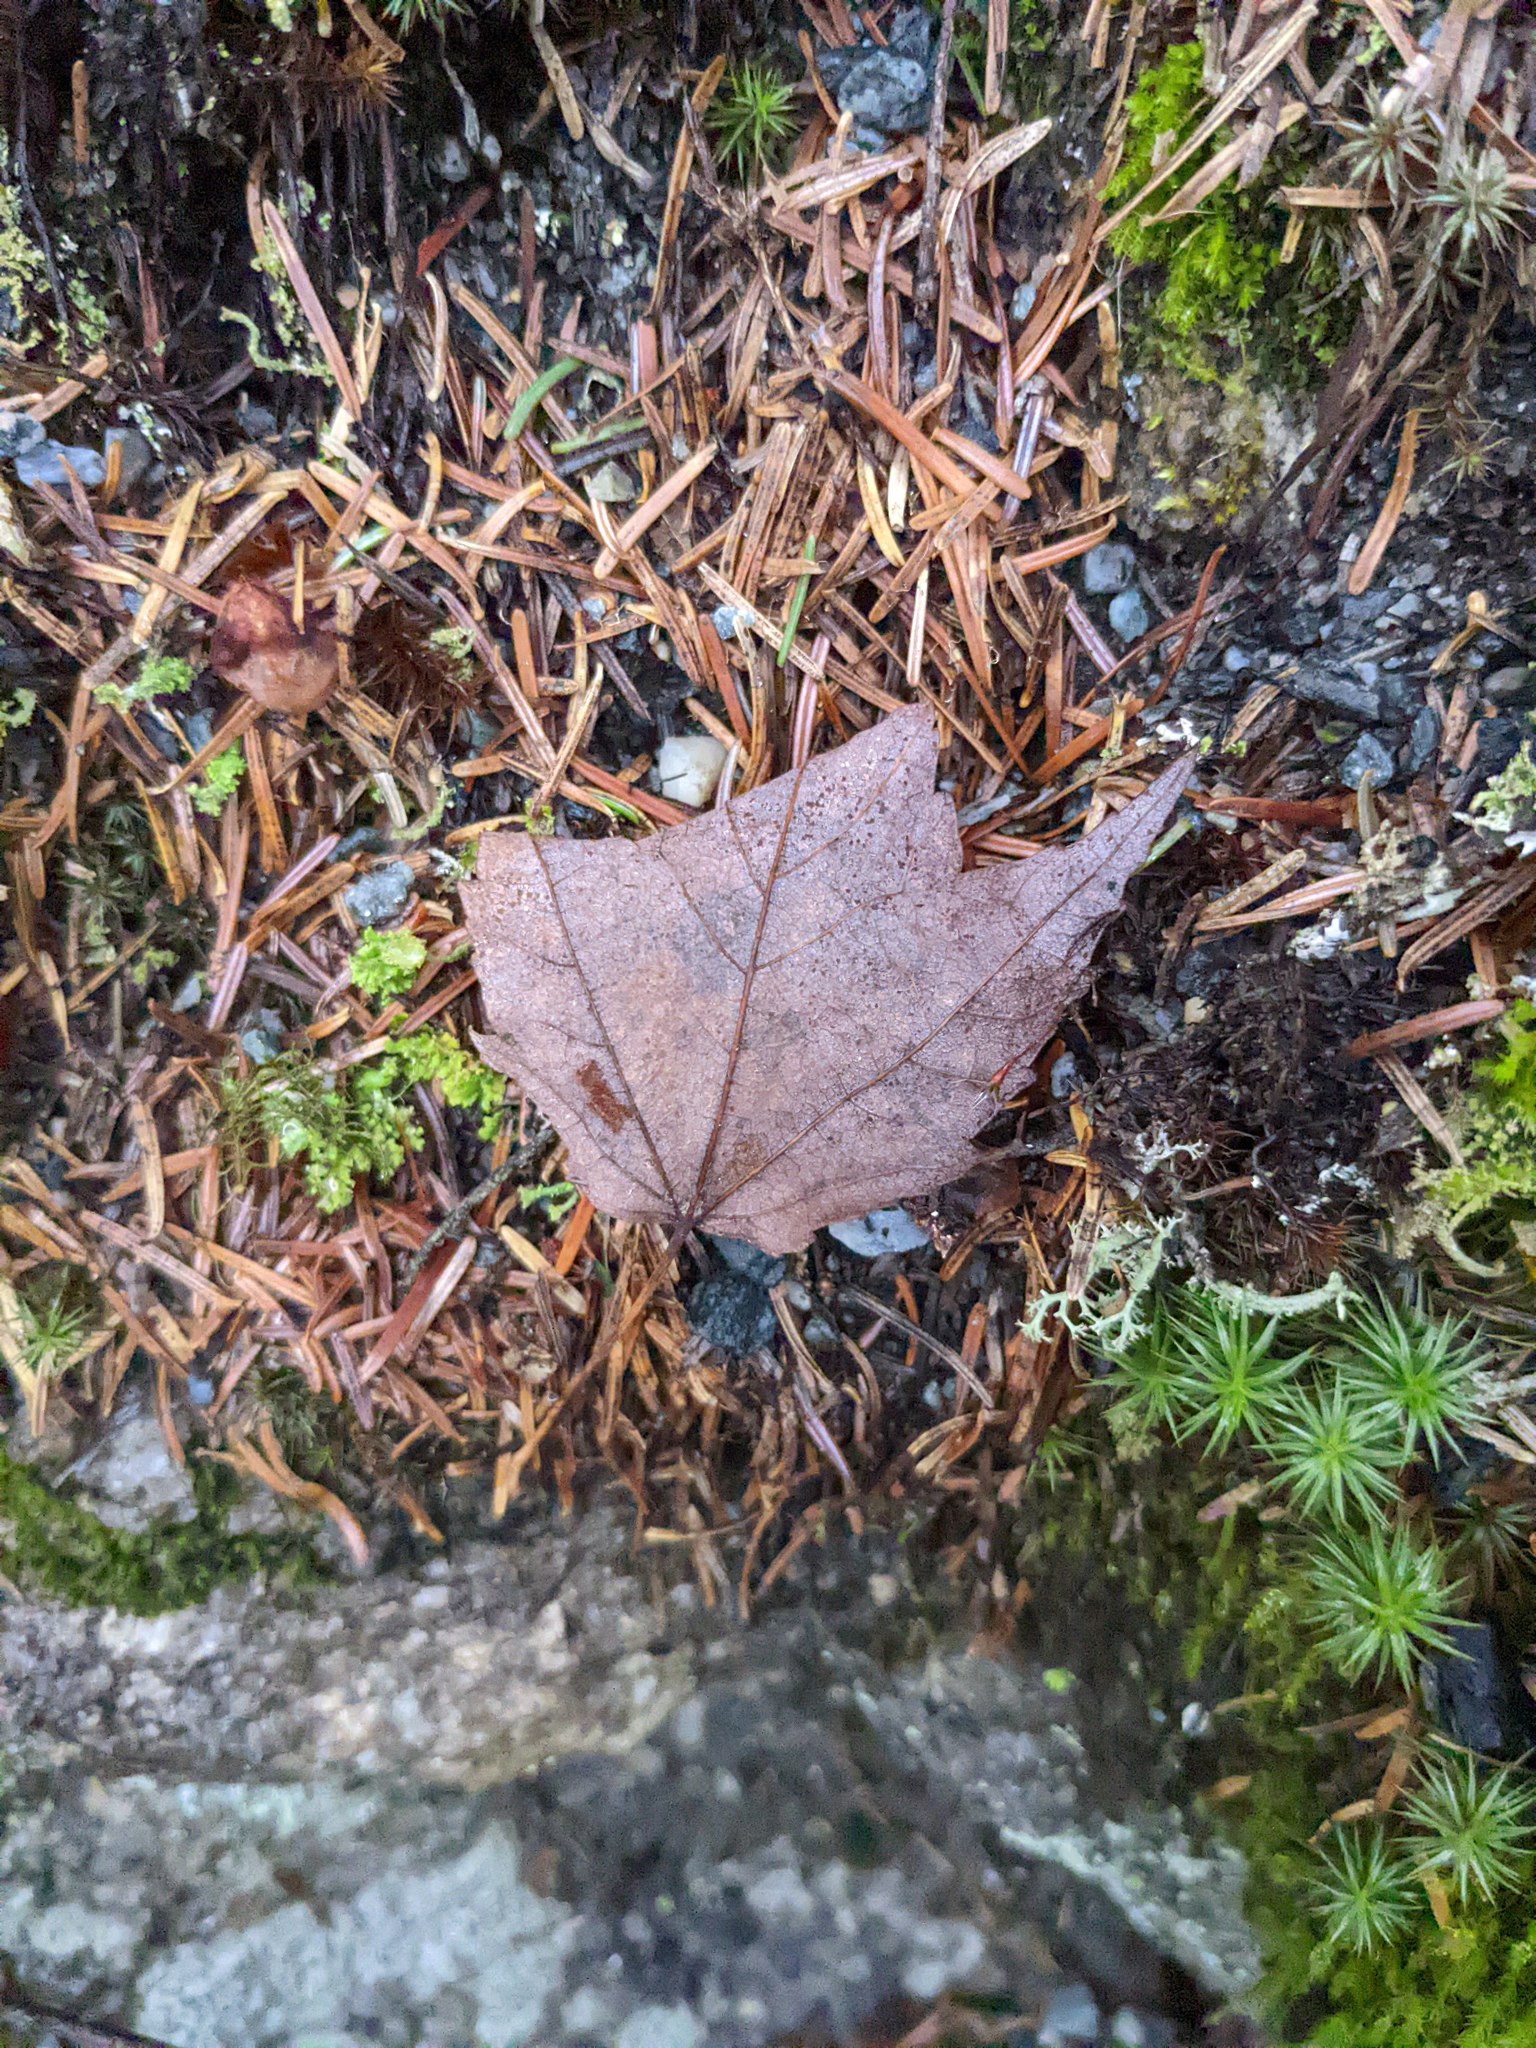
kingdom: Plantae
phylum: Tracheophyta
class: Magnoliopsida
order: Sapindales
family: Sapindaceae
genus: Acer
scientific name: Acer rubrum
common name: Red maple
